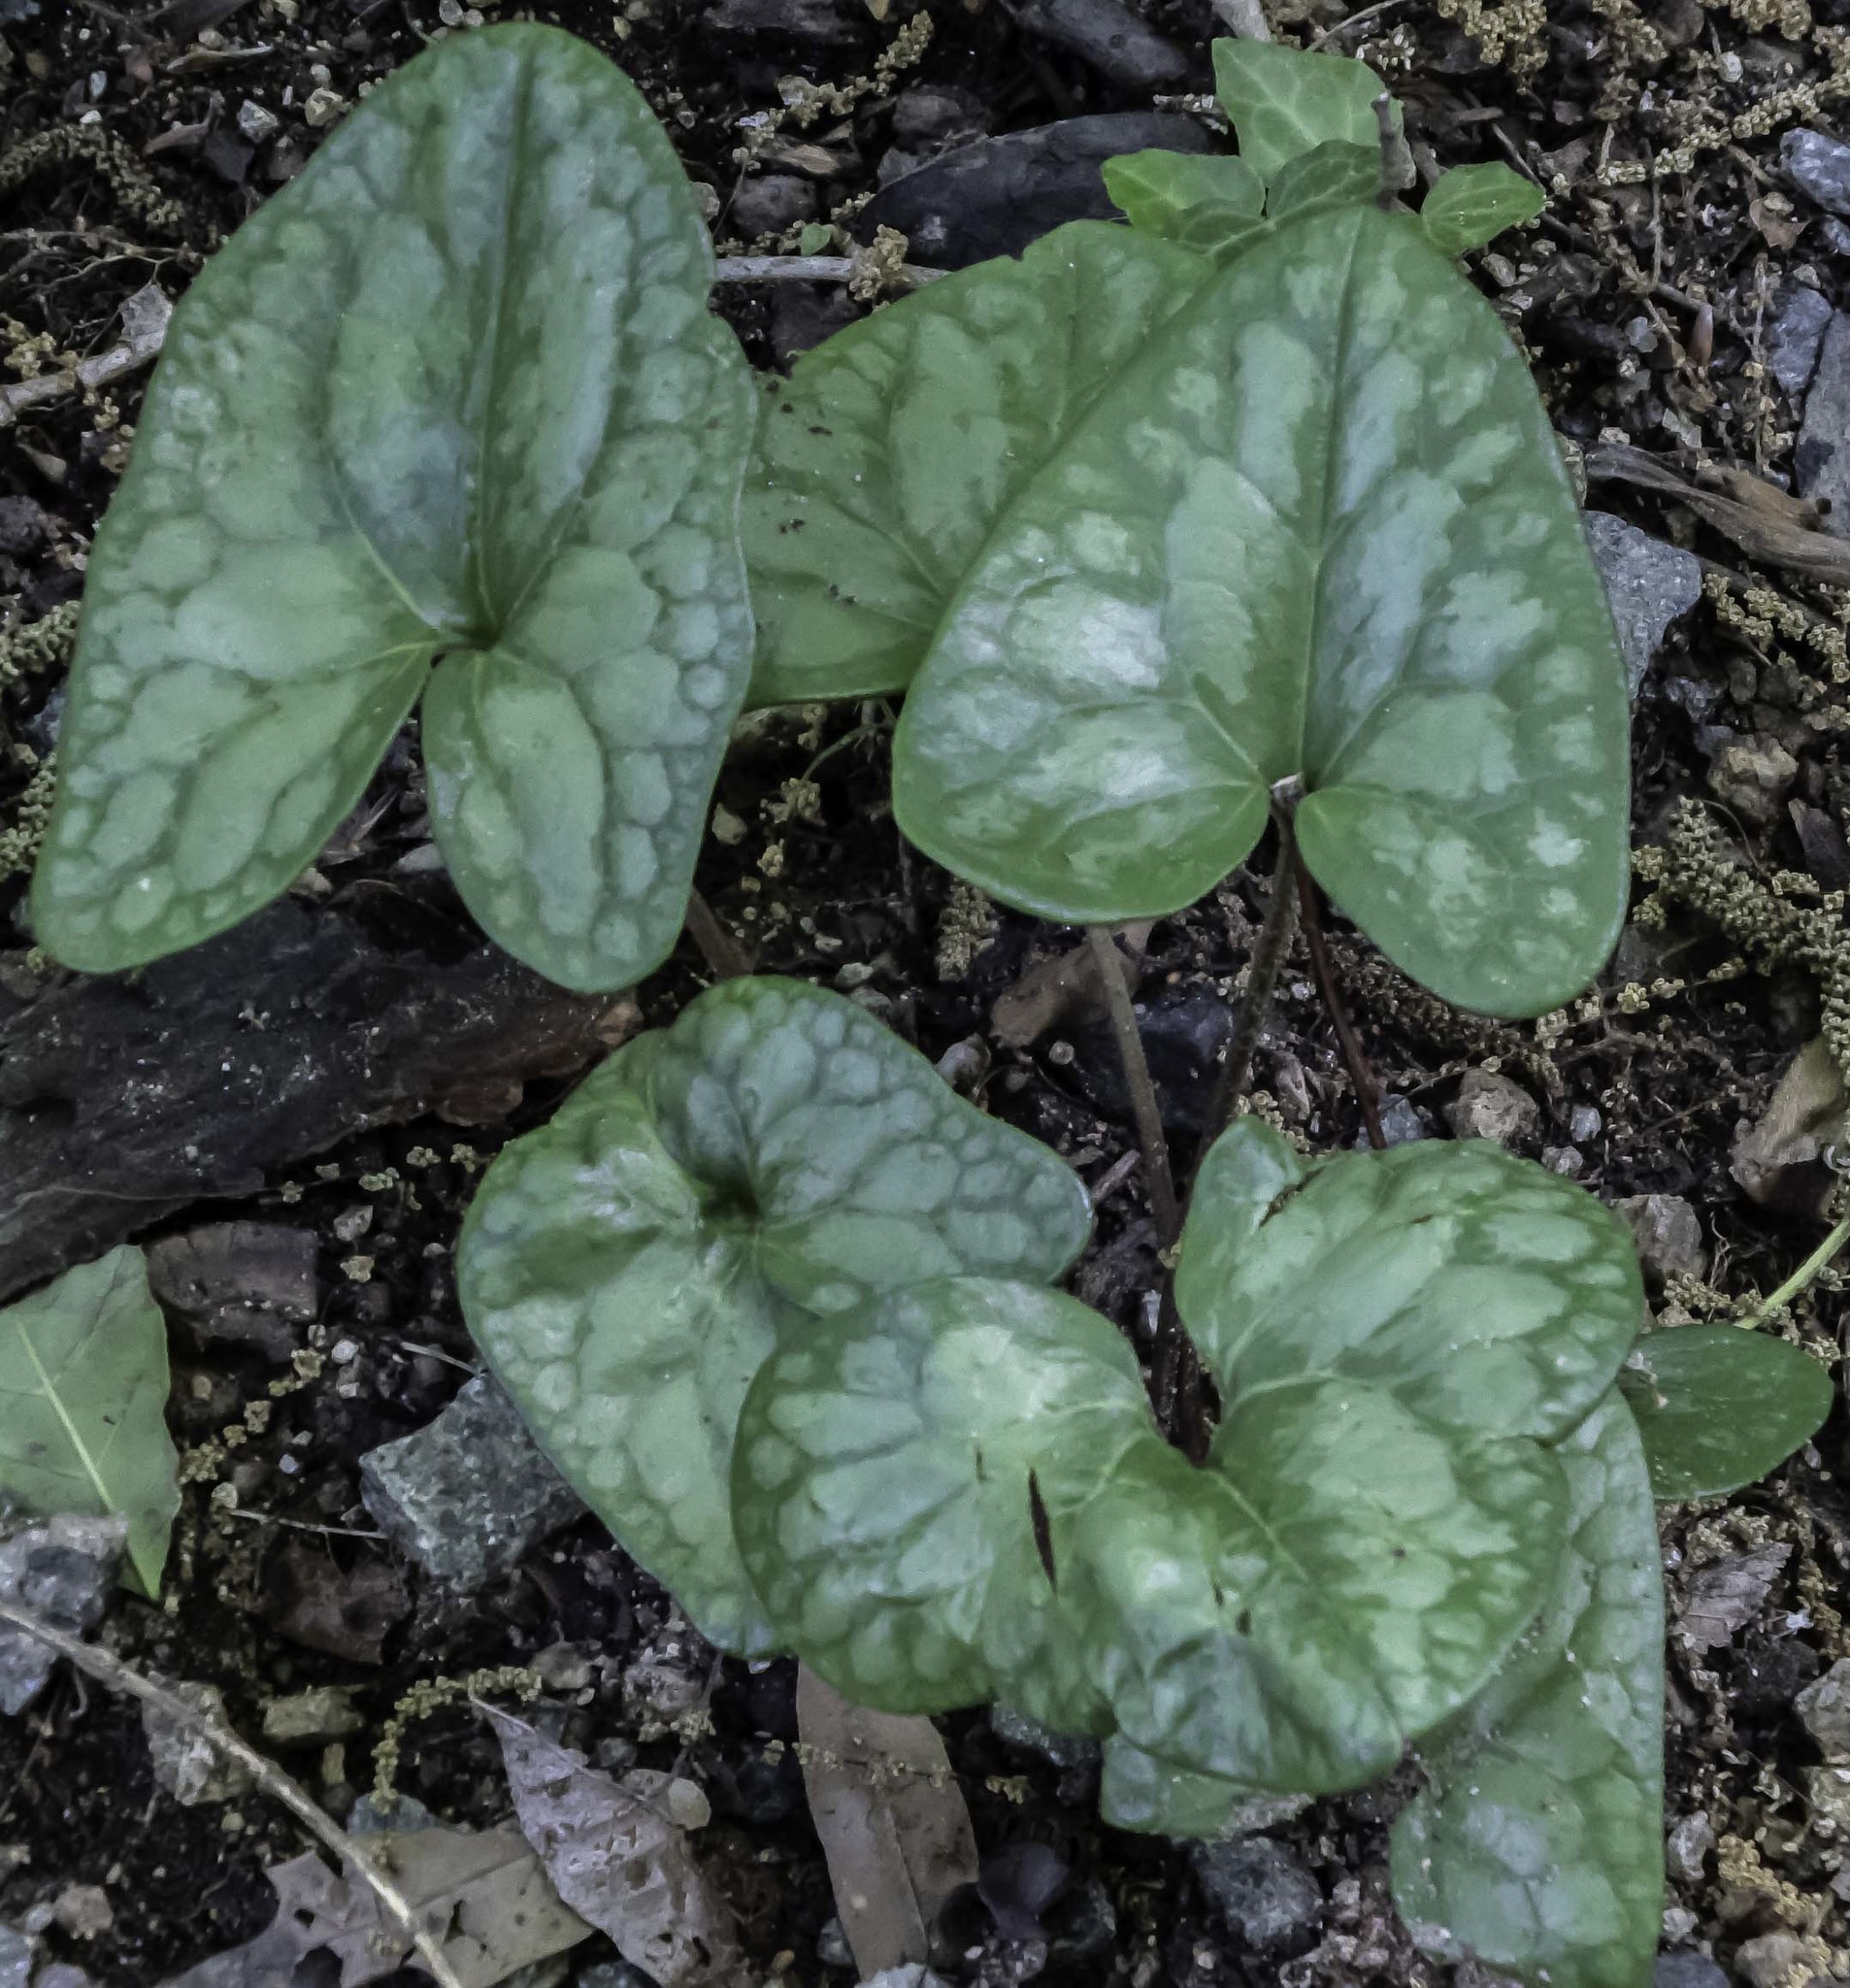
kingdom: Plantae
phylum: Tracheophyta
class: Magnoliopsida
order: Piperales
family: Aristolochiaceae
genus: Hexastylis
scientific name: Hexastylis arifolia
